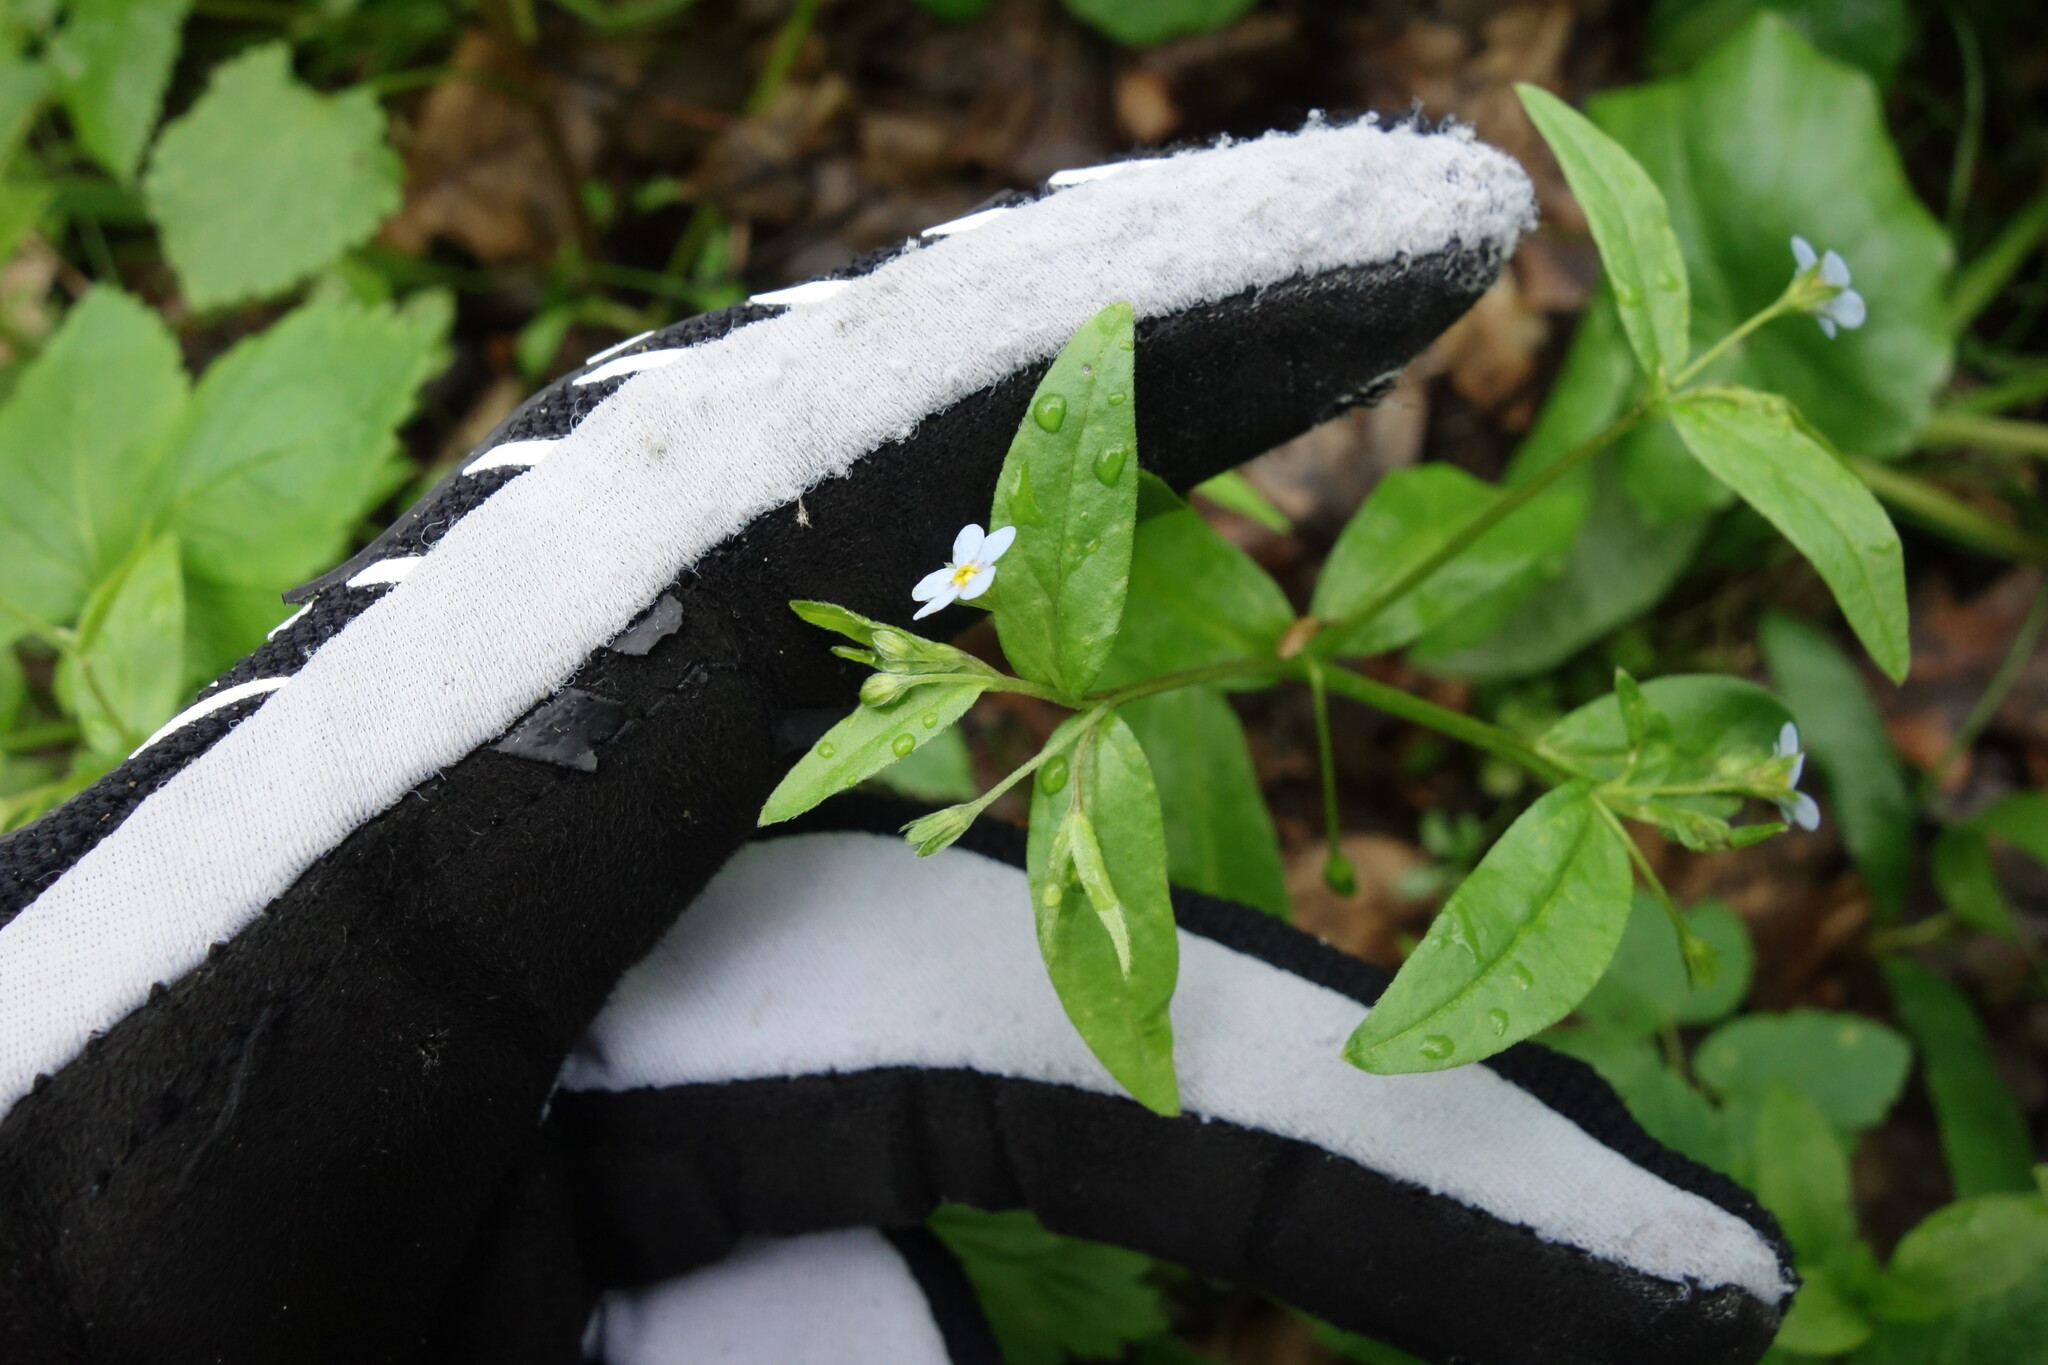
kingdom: Plantae
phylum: Tracheophyta
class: Magnoliopsida
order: Boraginales
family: Boraginaceae
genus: Memoremea
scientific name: Memoremea scorpioides
